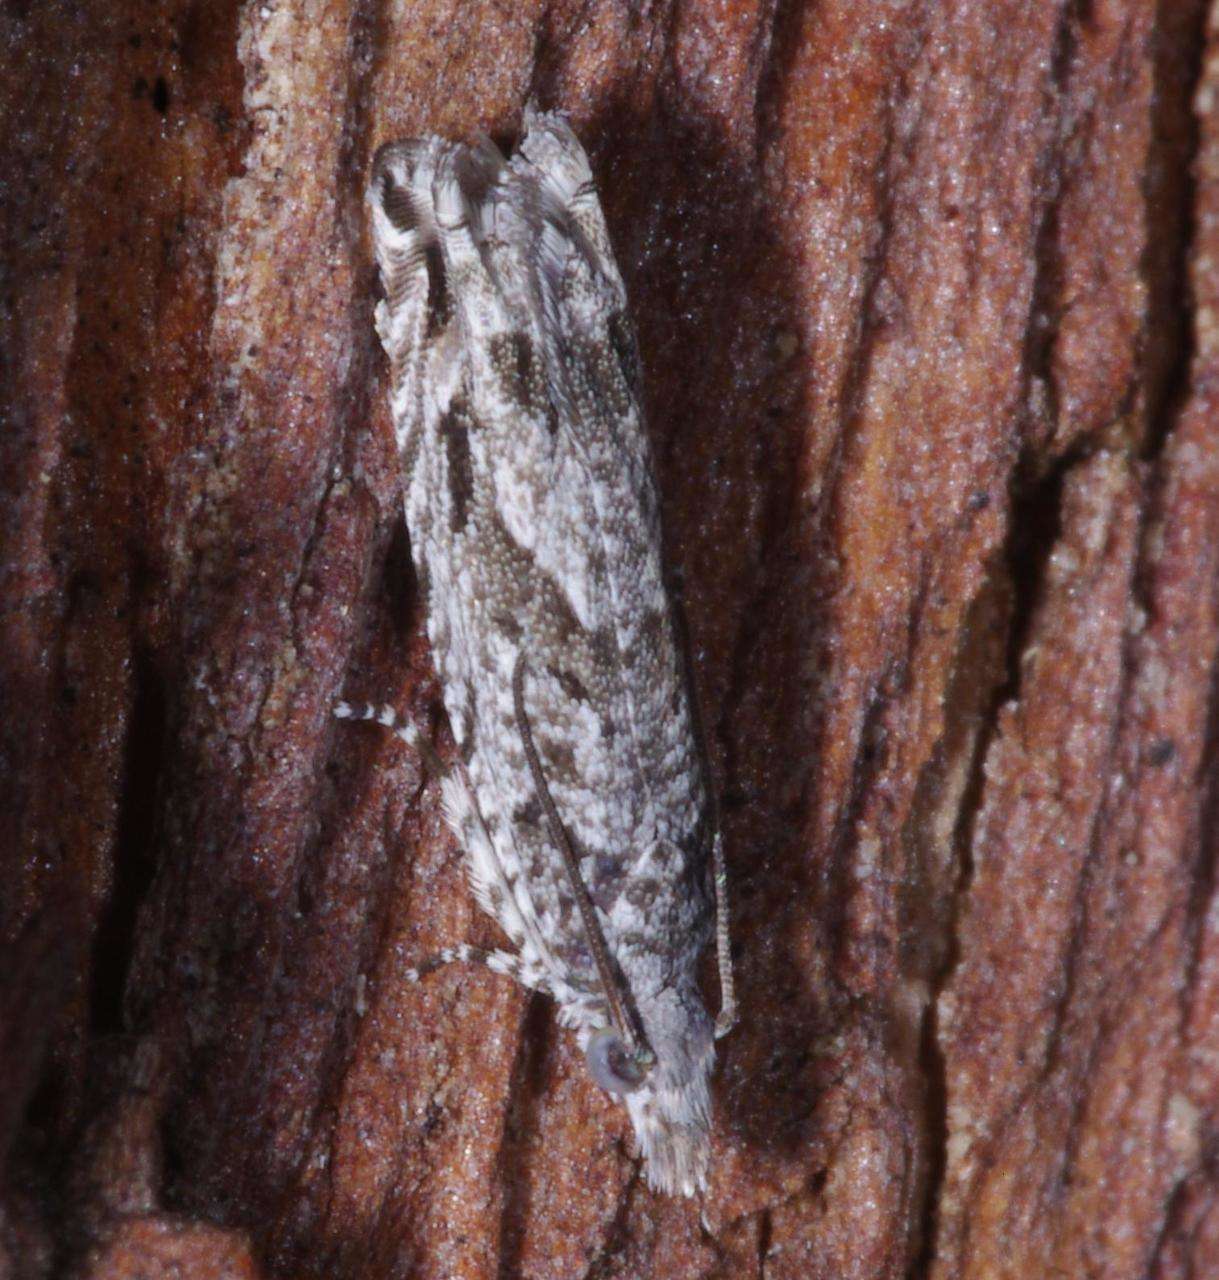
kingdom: Animalia
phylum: Arthropoda
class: Insecta
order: Lepidoptera
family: Tortricidae
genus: Holocola
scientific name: Holocola thalassinana
